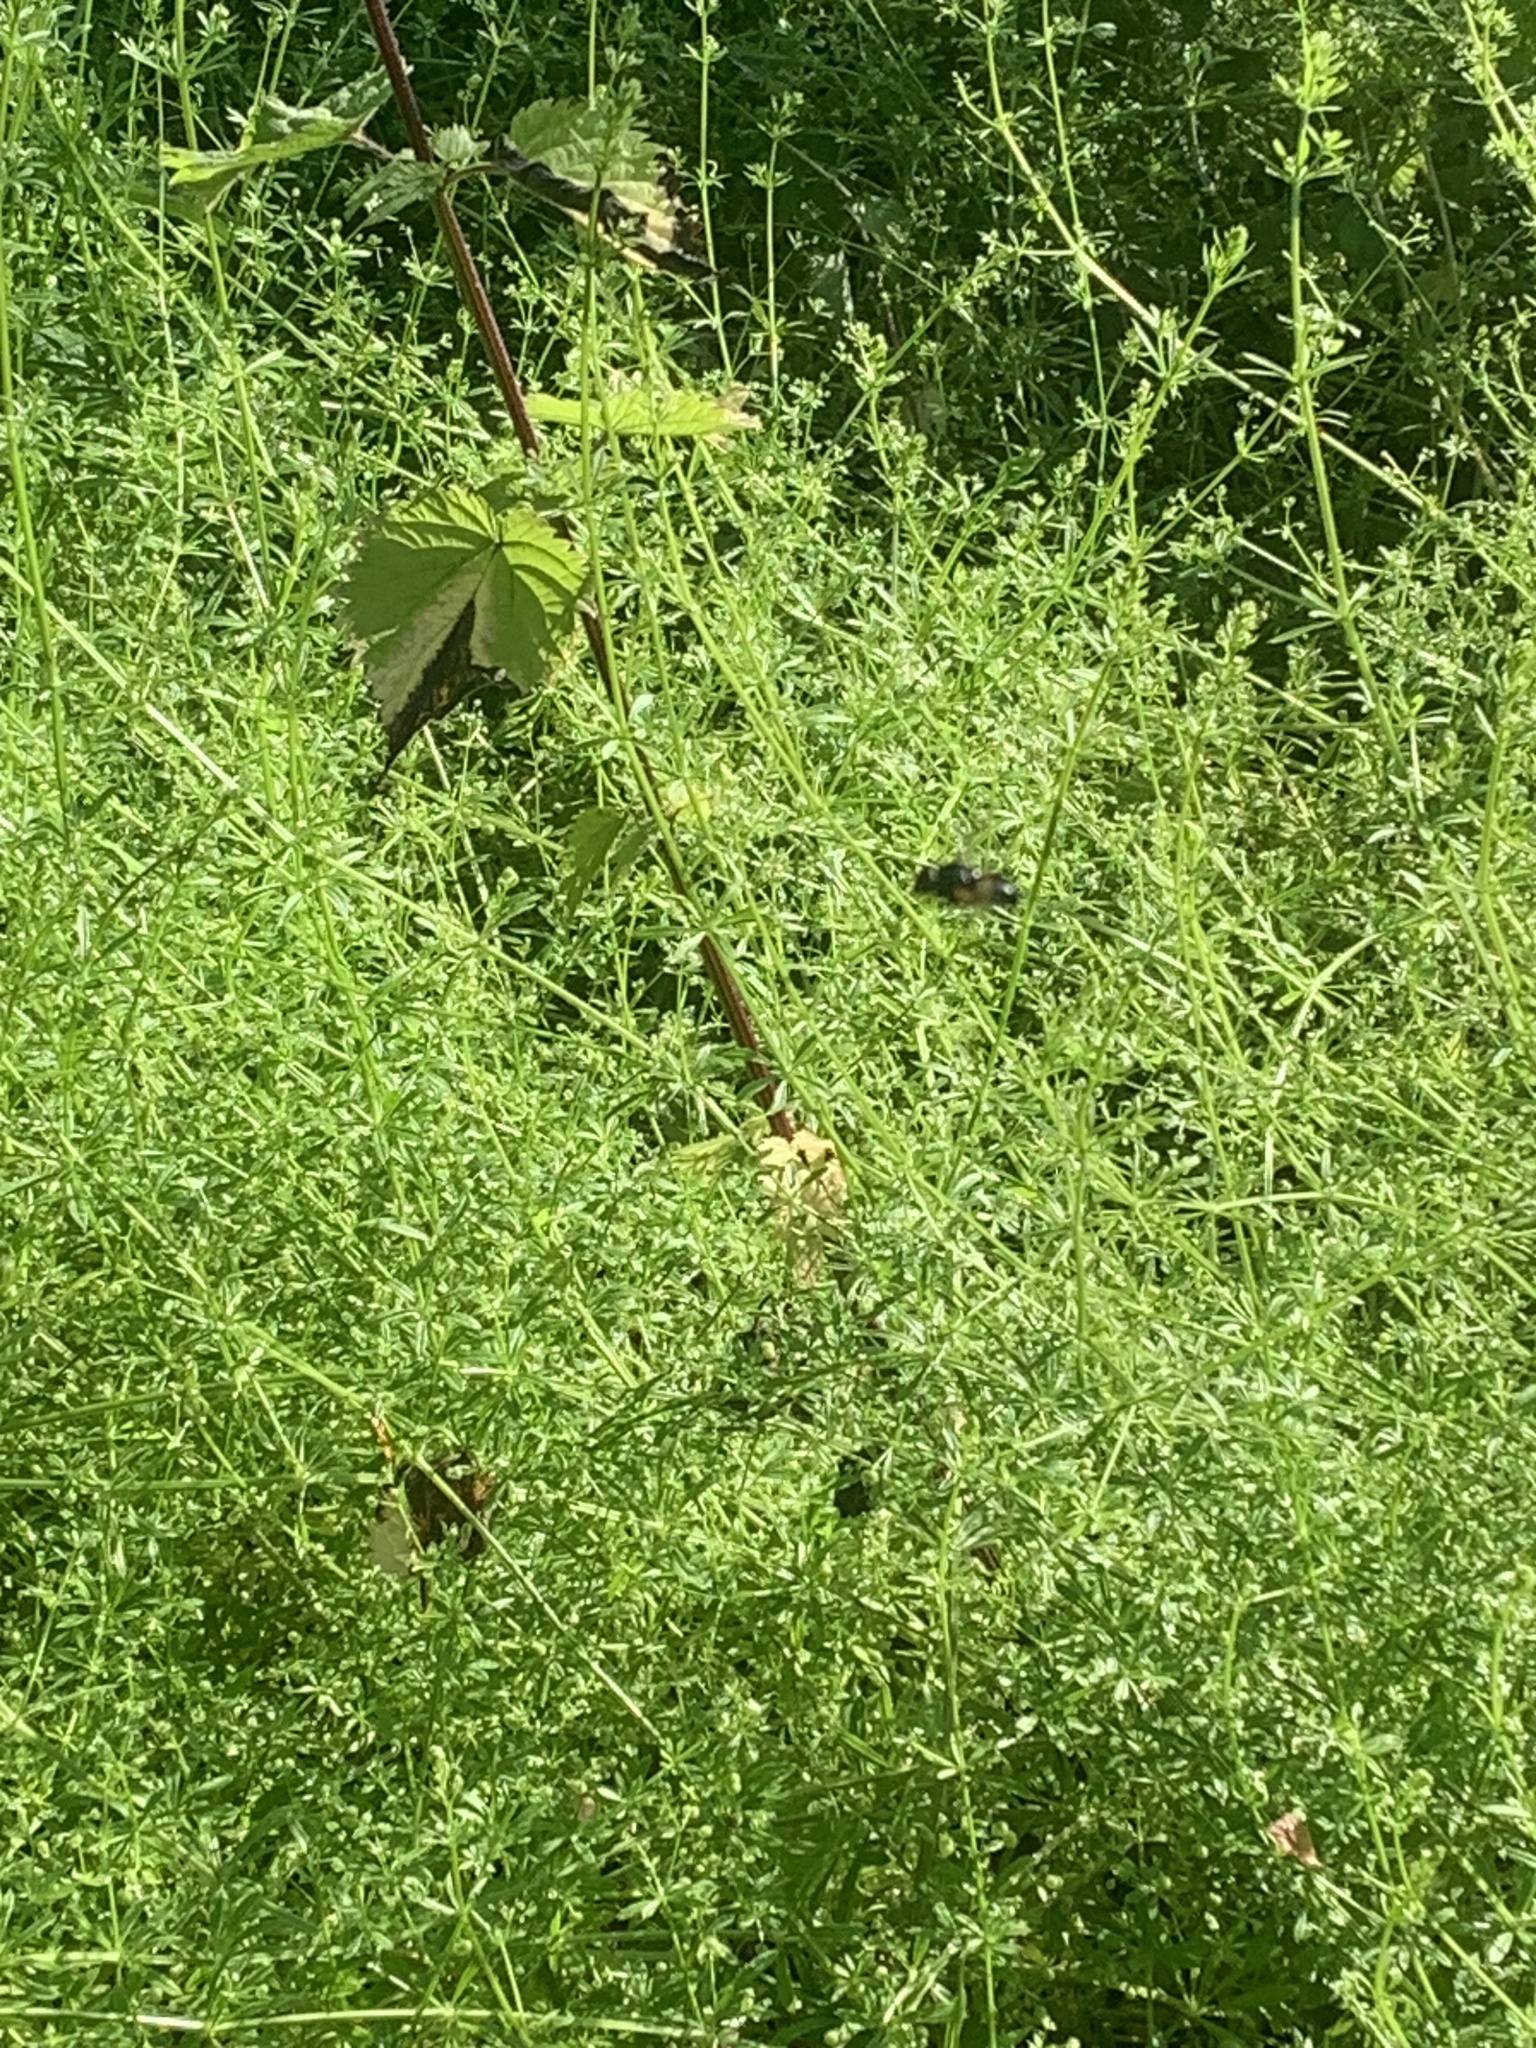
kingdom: Animalia
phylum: Arthropoda
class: Insecta
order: Diptera
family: Syrphidae
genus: Volucella
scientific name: Volucella pellucens
